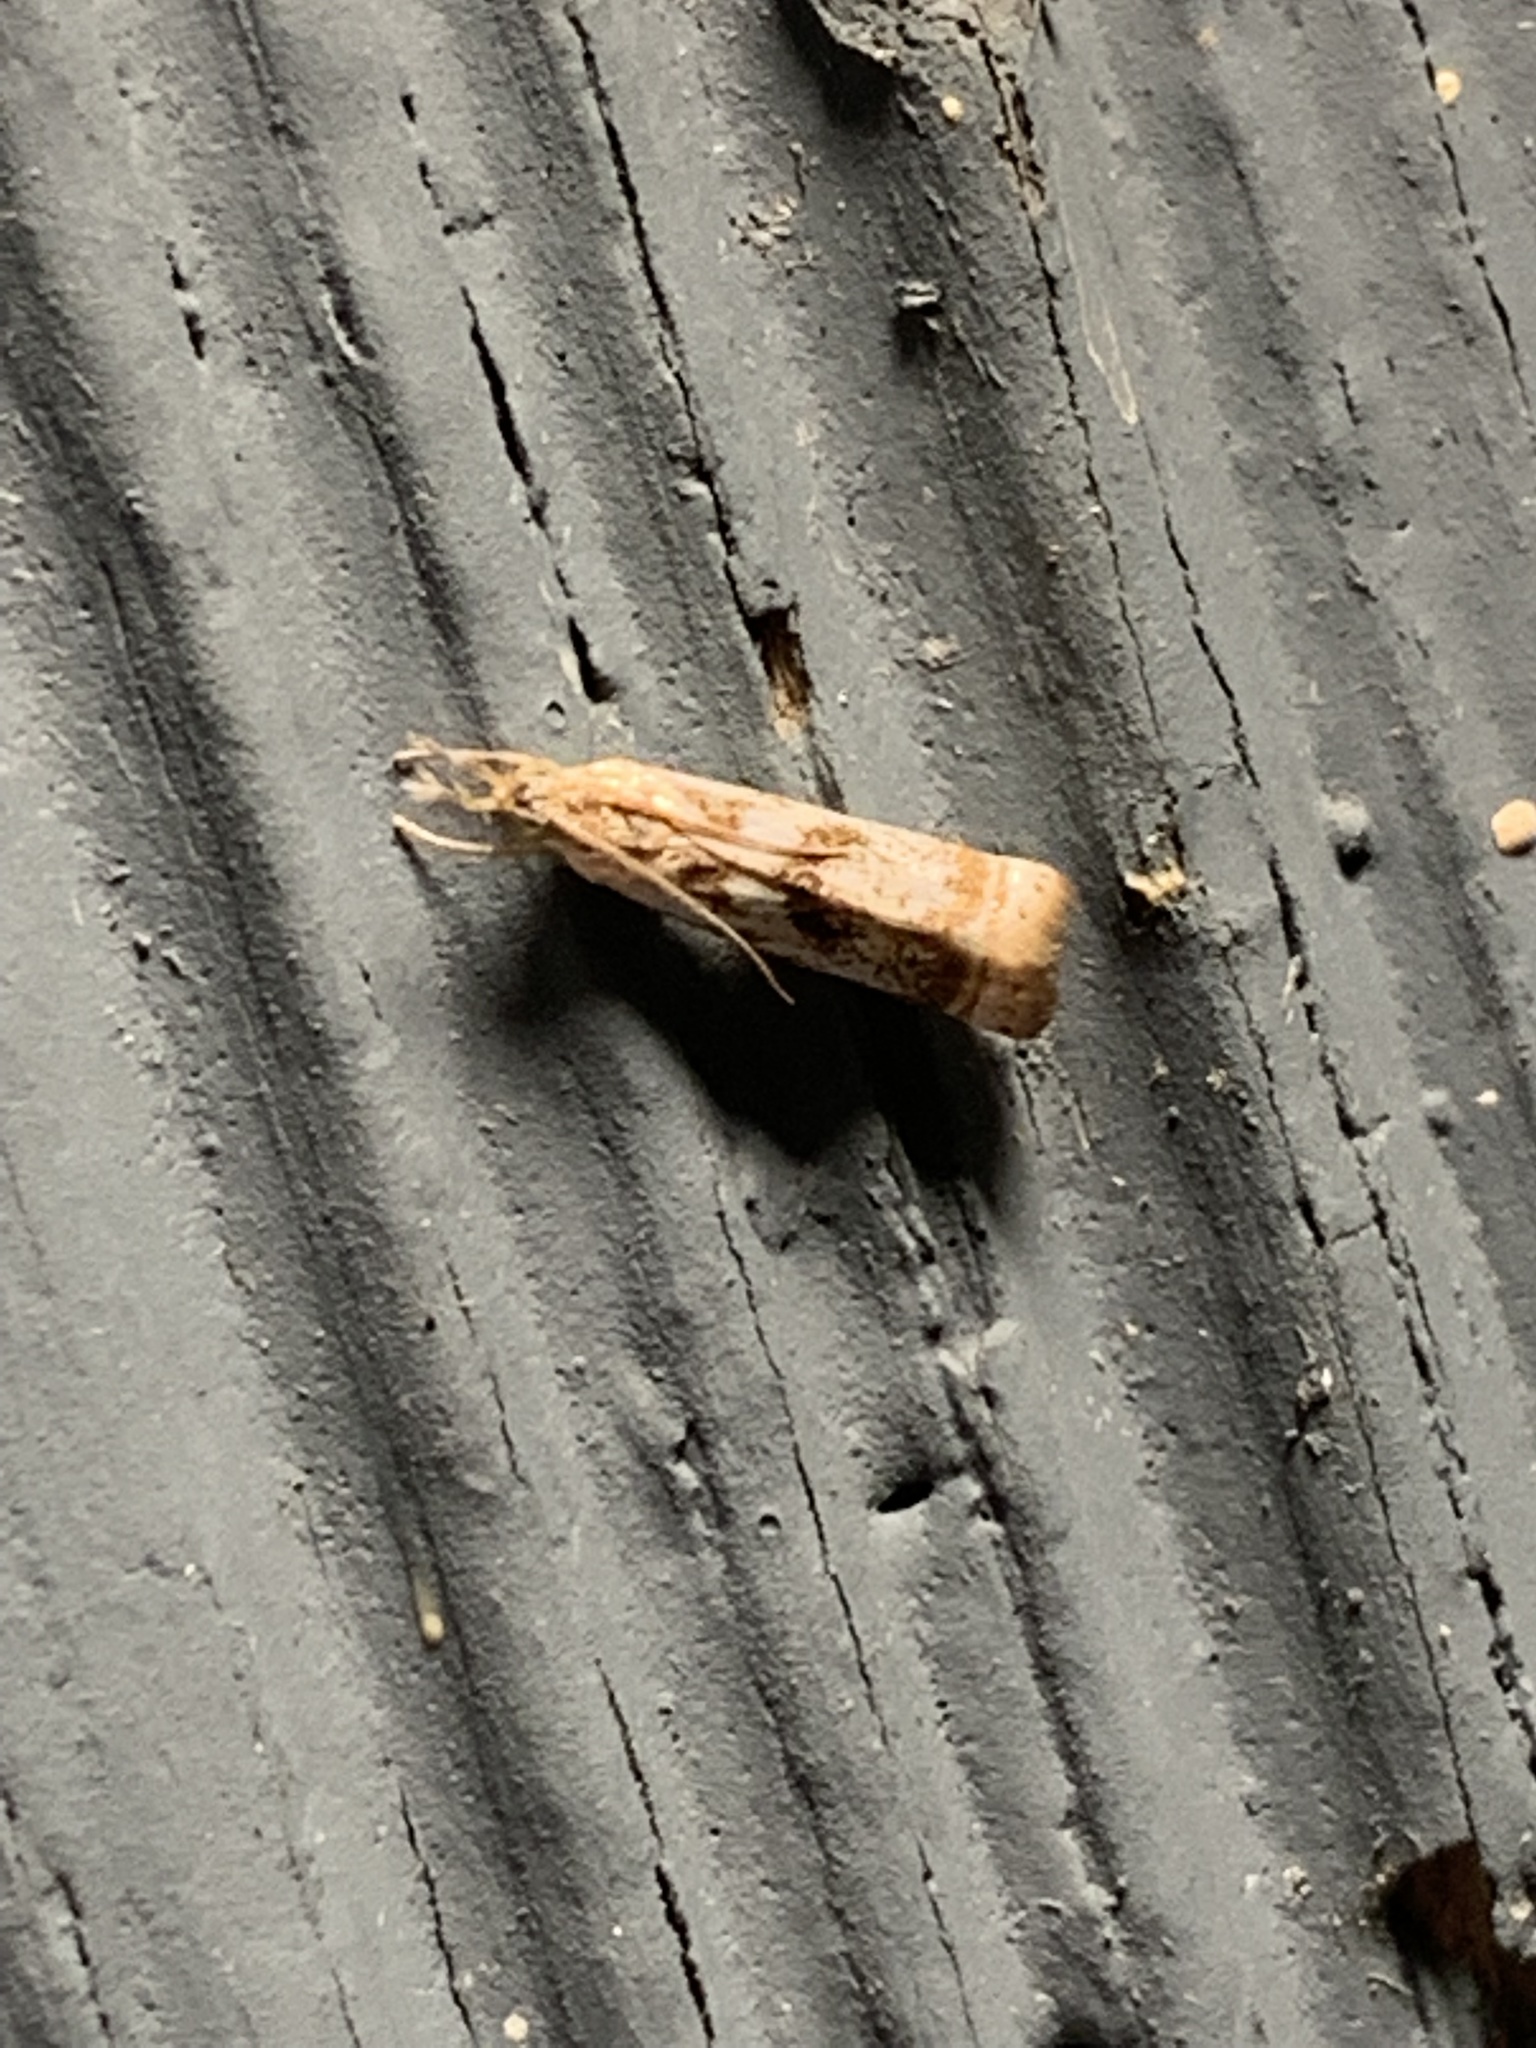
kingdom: Animalia
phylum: Arthropoda
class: Insecta
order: Lepidoptera
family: Crambidae
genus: Microcrambus
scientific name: Microcrambus elegans
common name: Elegant grass-veneer
